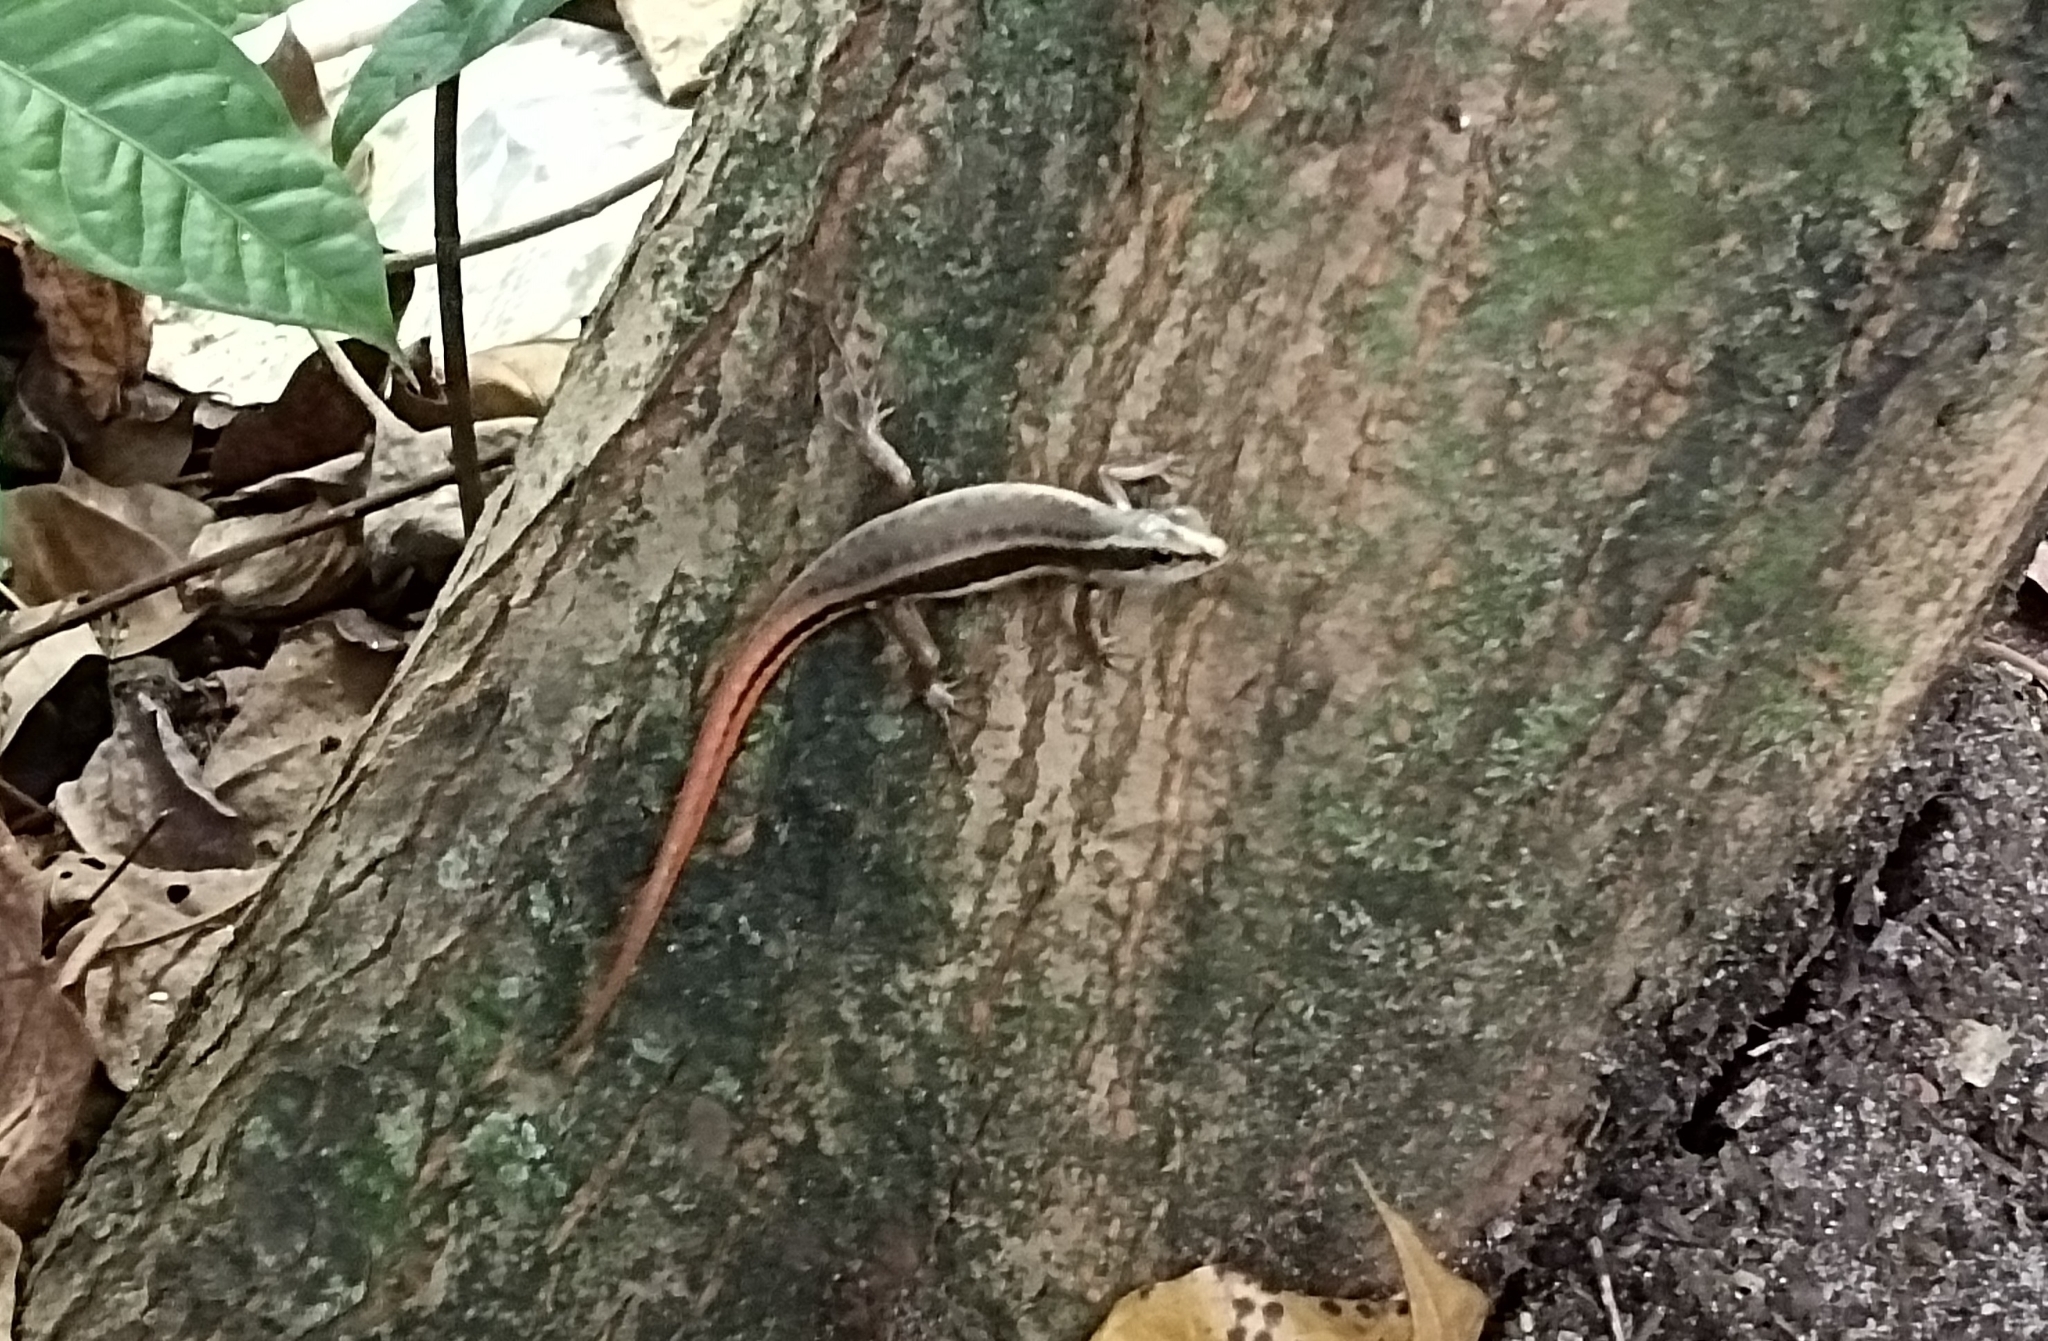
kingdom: Animalia
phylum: Chordata
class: Squamata
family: Scincidae
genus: Sphenomorphus
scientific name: Sphenomorphus dussumieri
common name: Dussumier's forest skink
